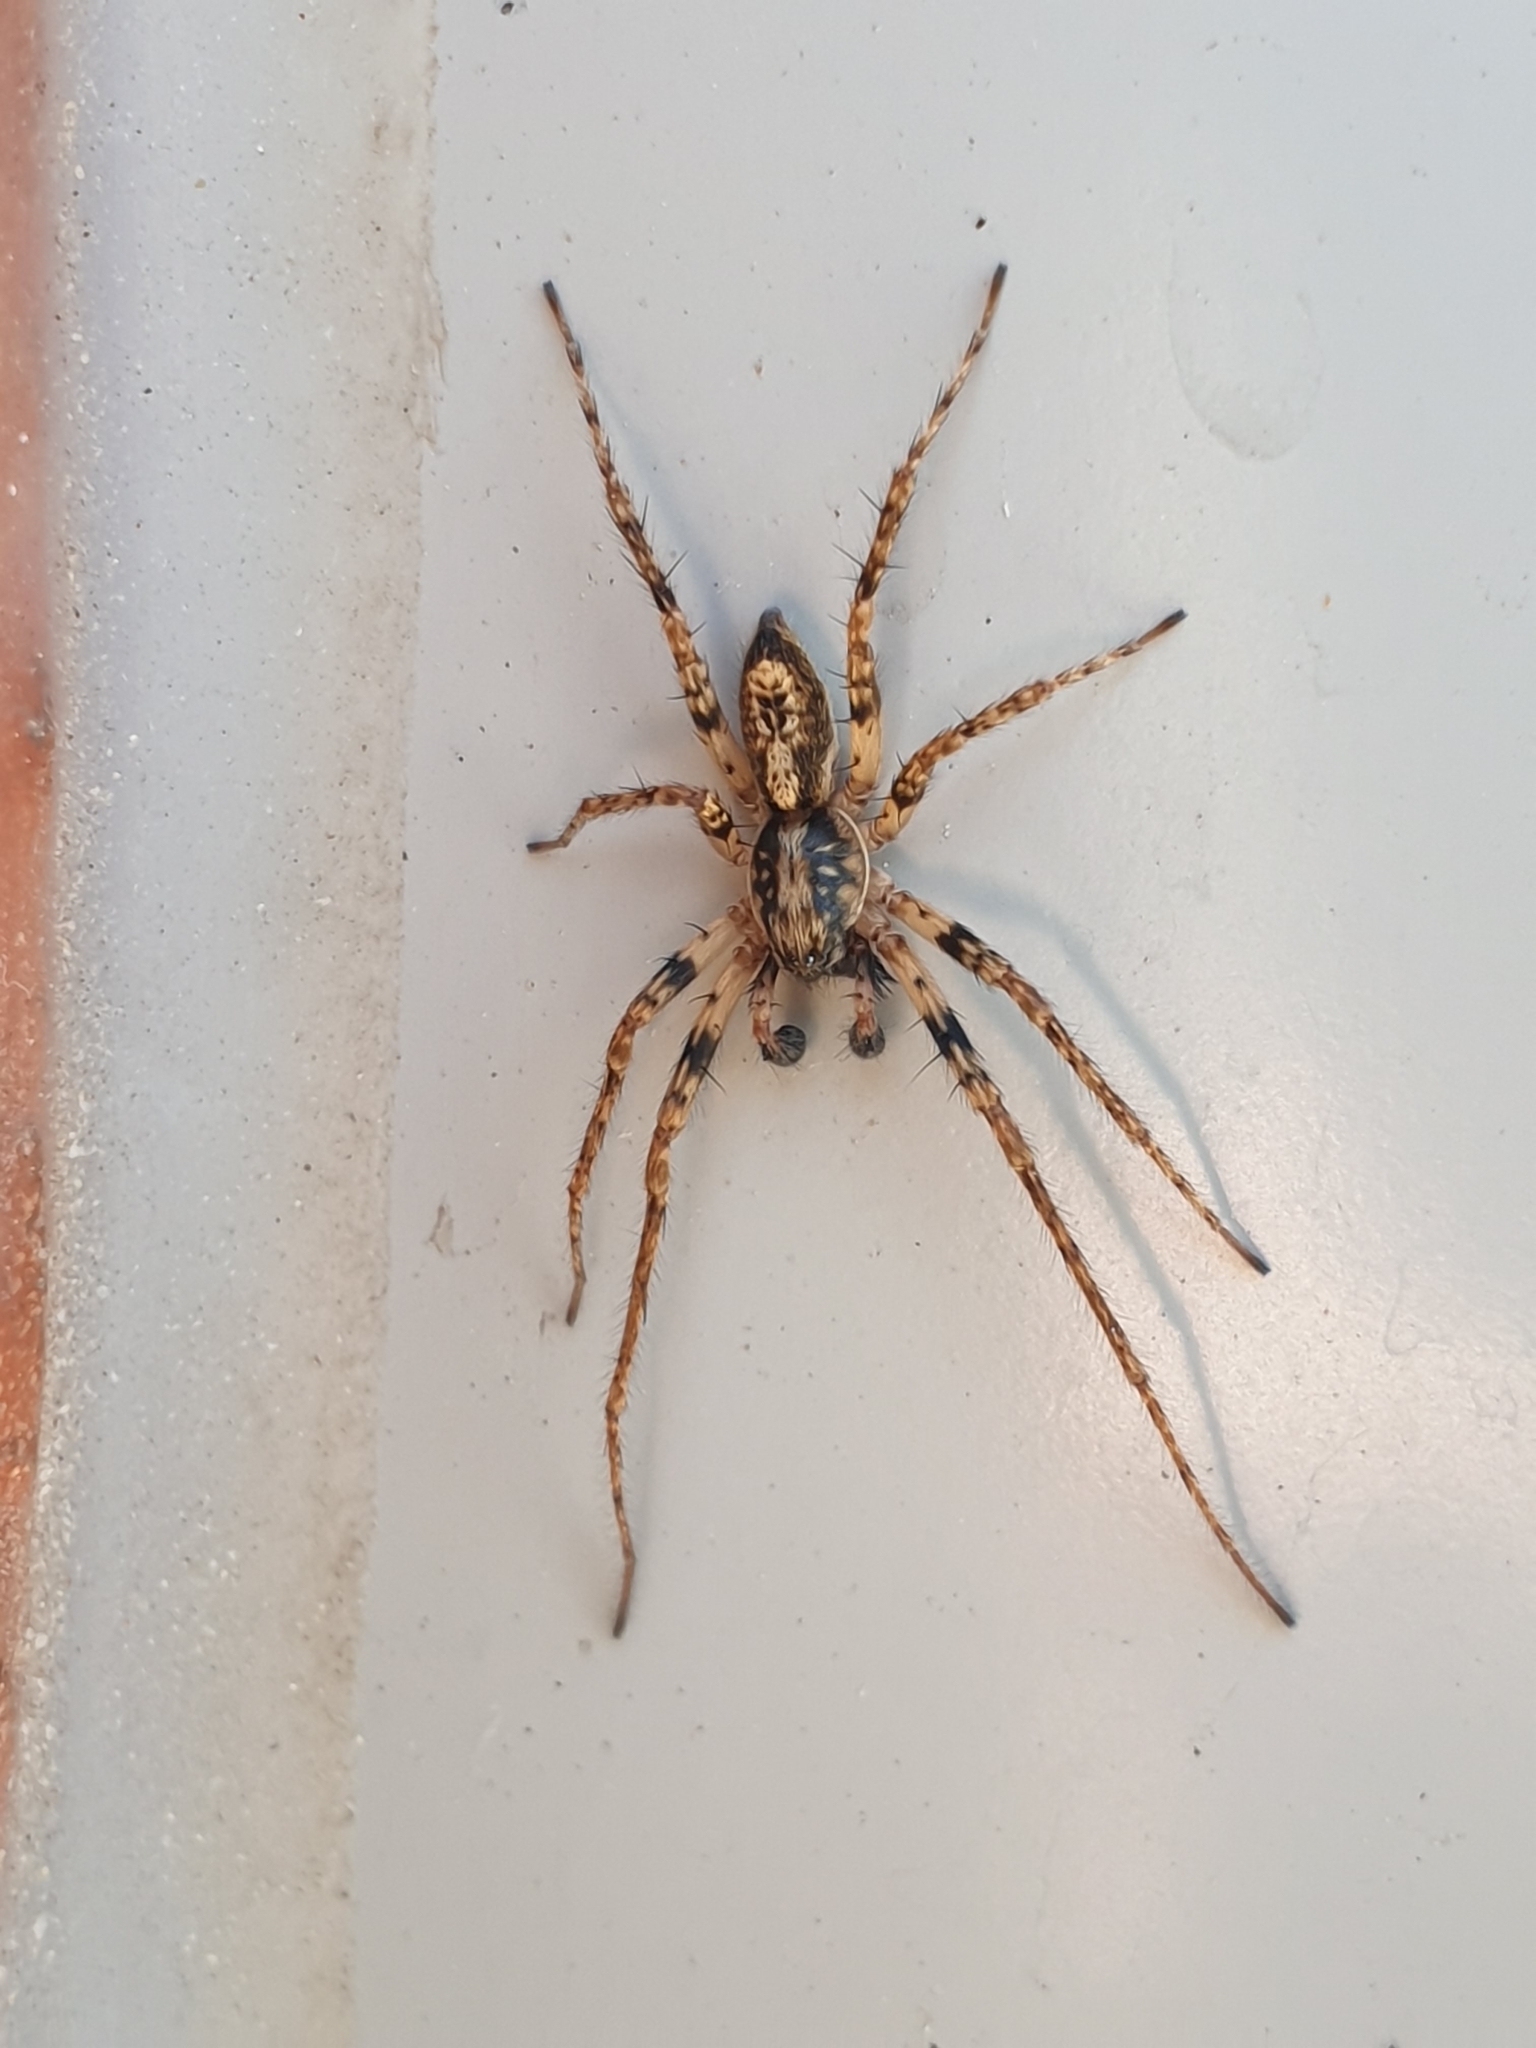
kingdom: Animalia
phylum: Arthropoda
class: Arachnida
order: Araneae
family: Anyphaenidae
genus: Anyphaena
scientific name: Anyphaena accentuata
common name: Buzzing spider
